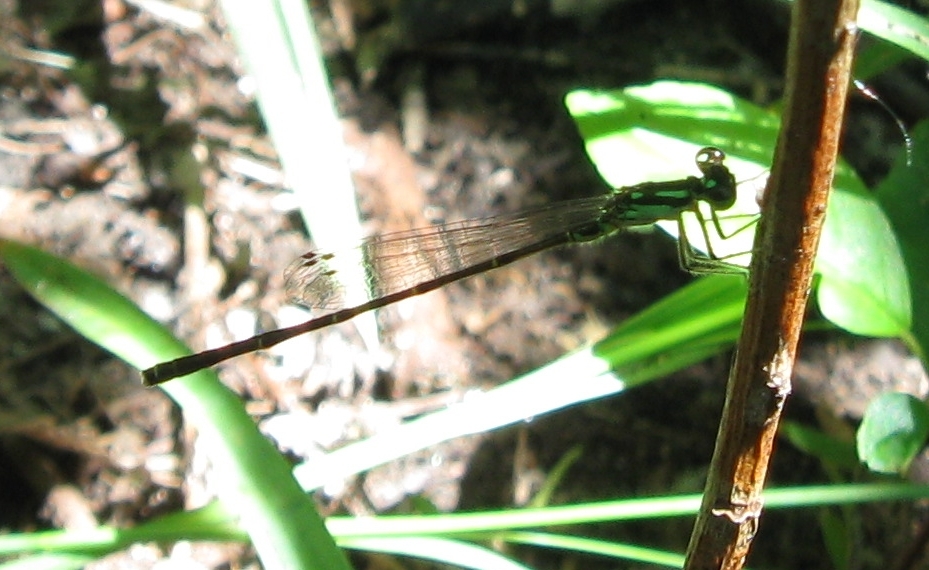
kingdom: Animalia
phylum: Arthropoda
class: Insecta
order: Odonata
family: Coenagrionidae
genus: Ischnura
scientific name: Ischnura posita
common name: Fragile forktail
